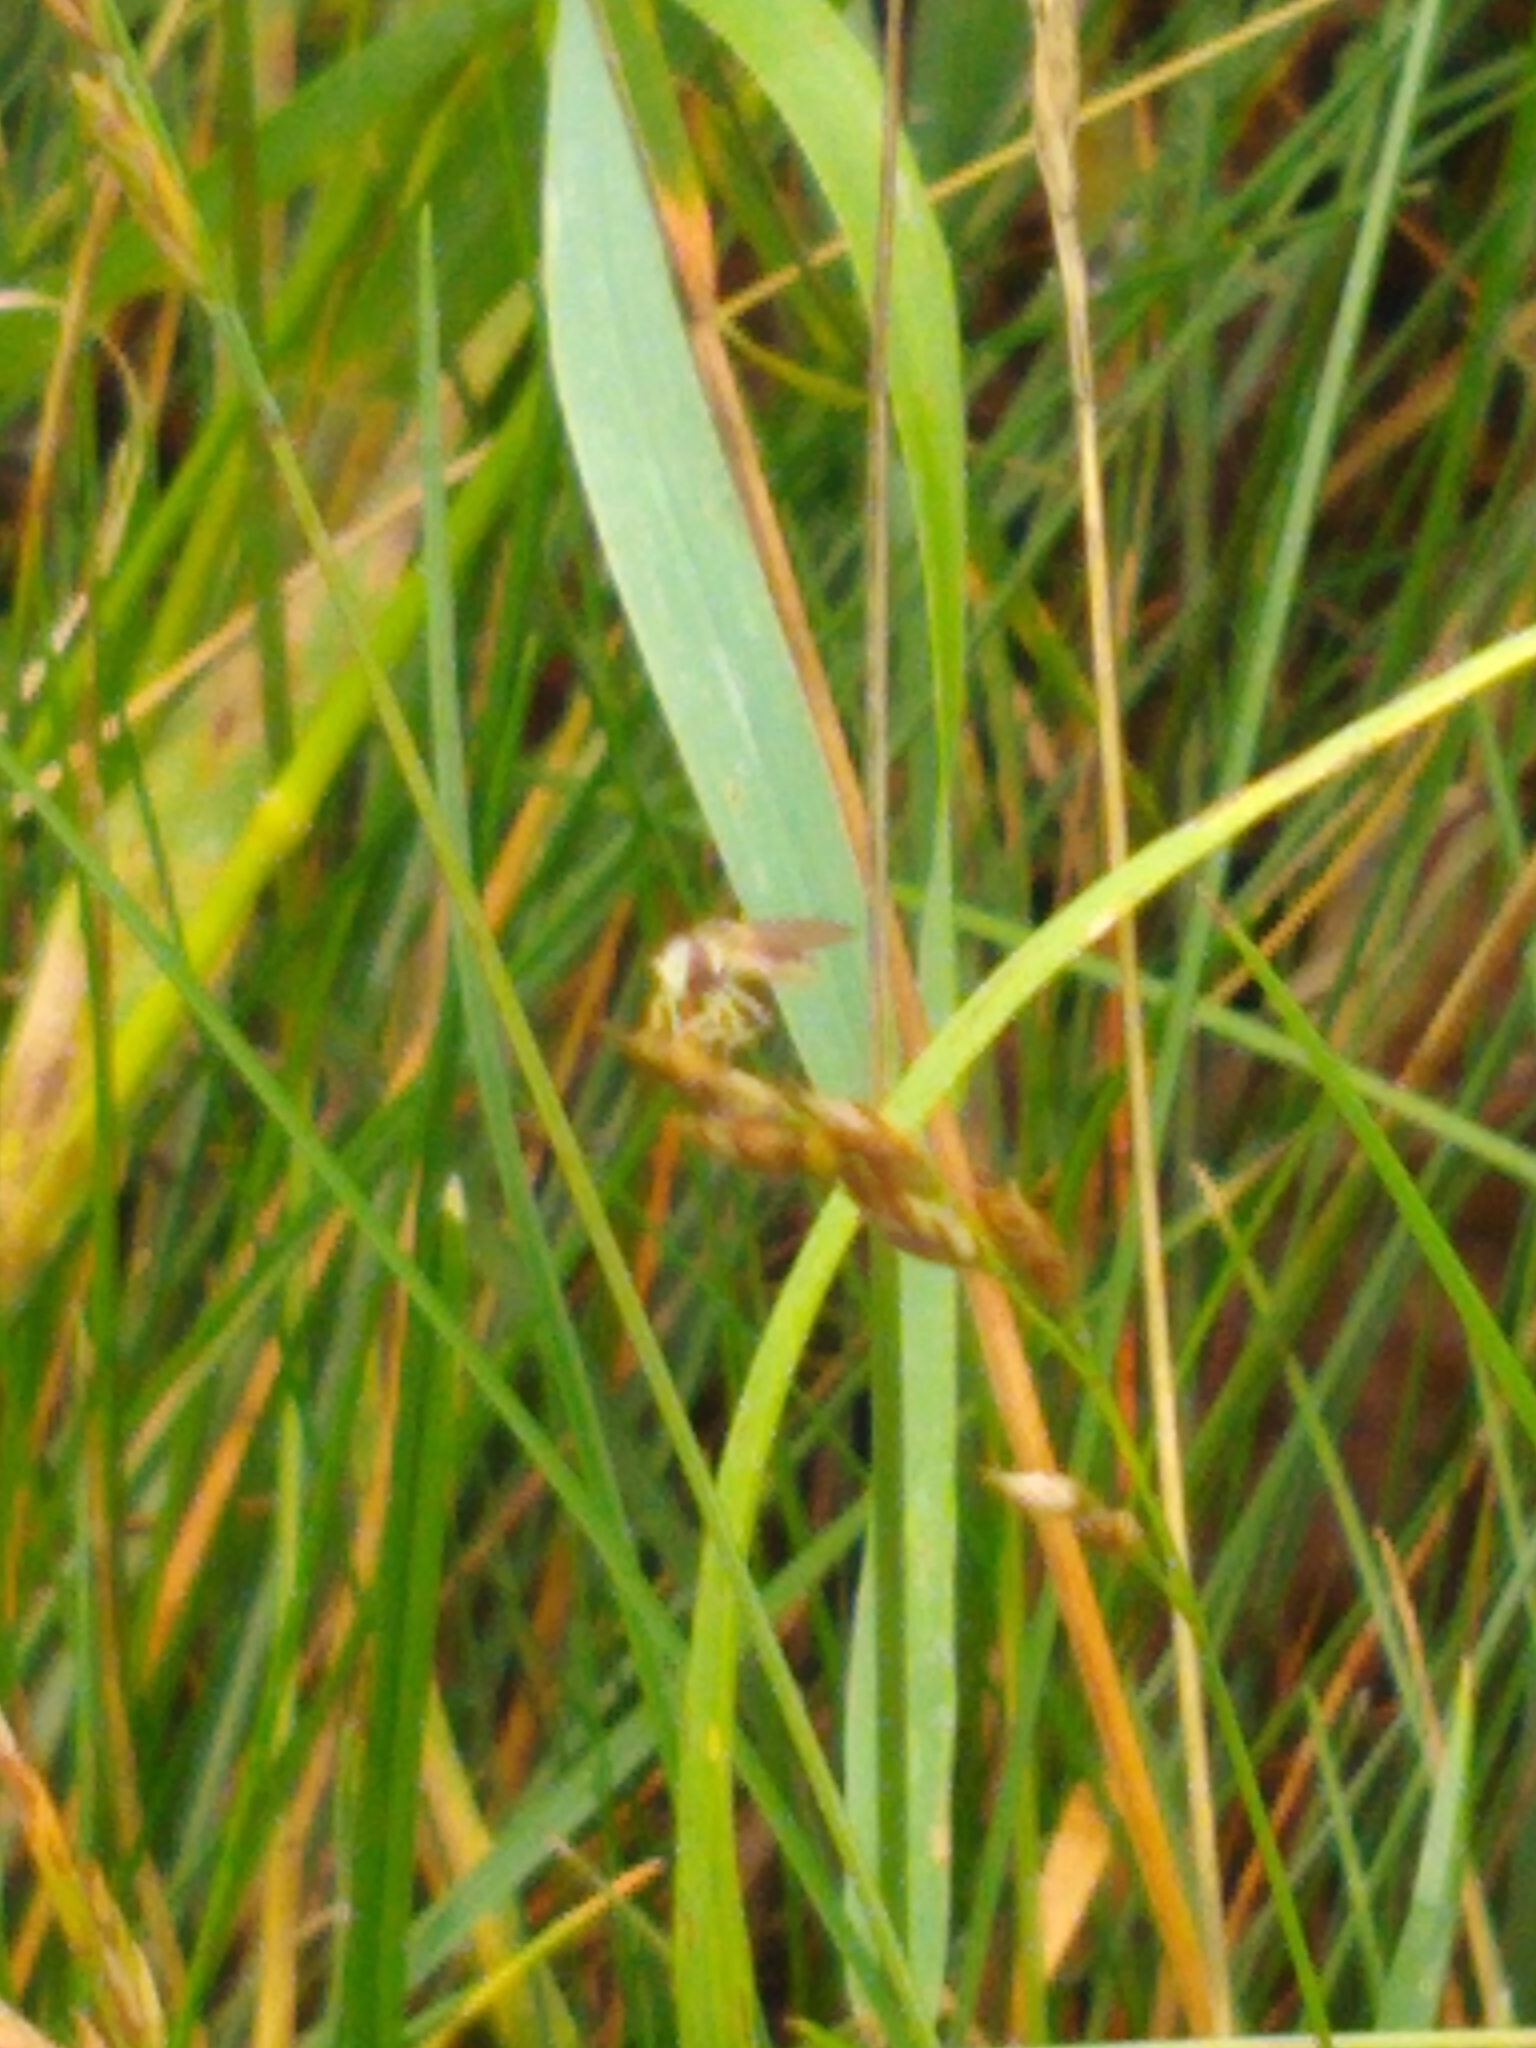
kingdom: Animalia
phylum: Arthropoda
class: Insecta
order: Diptera
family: Syrphidae
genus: Toxomerus
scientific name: Toxomerus marginatus
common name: Syrphid fly
